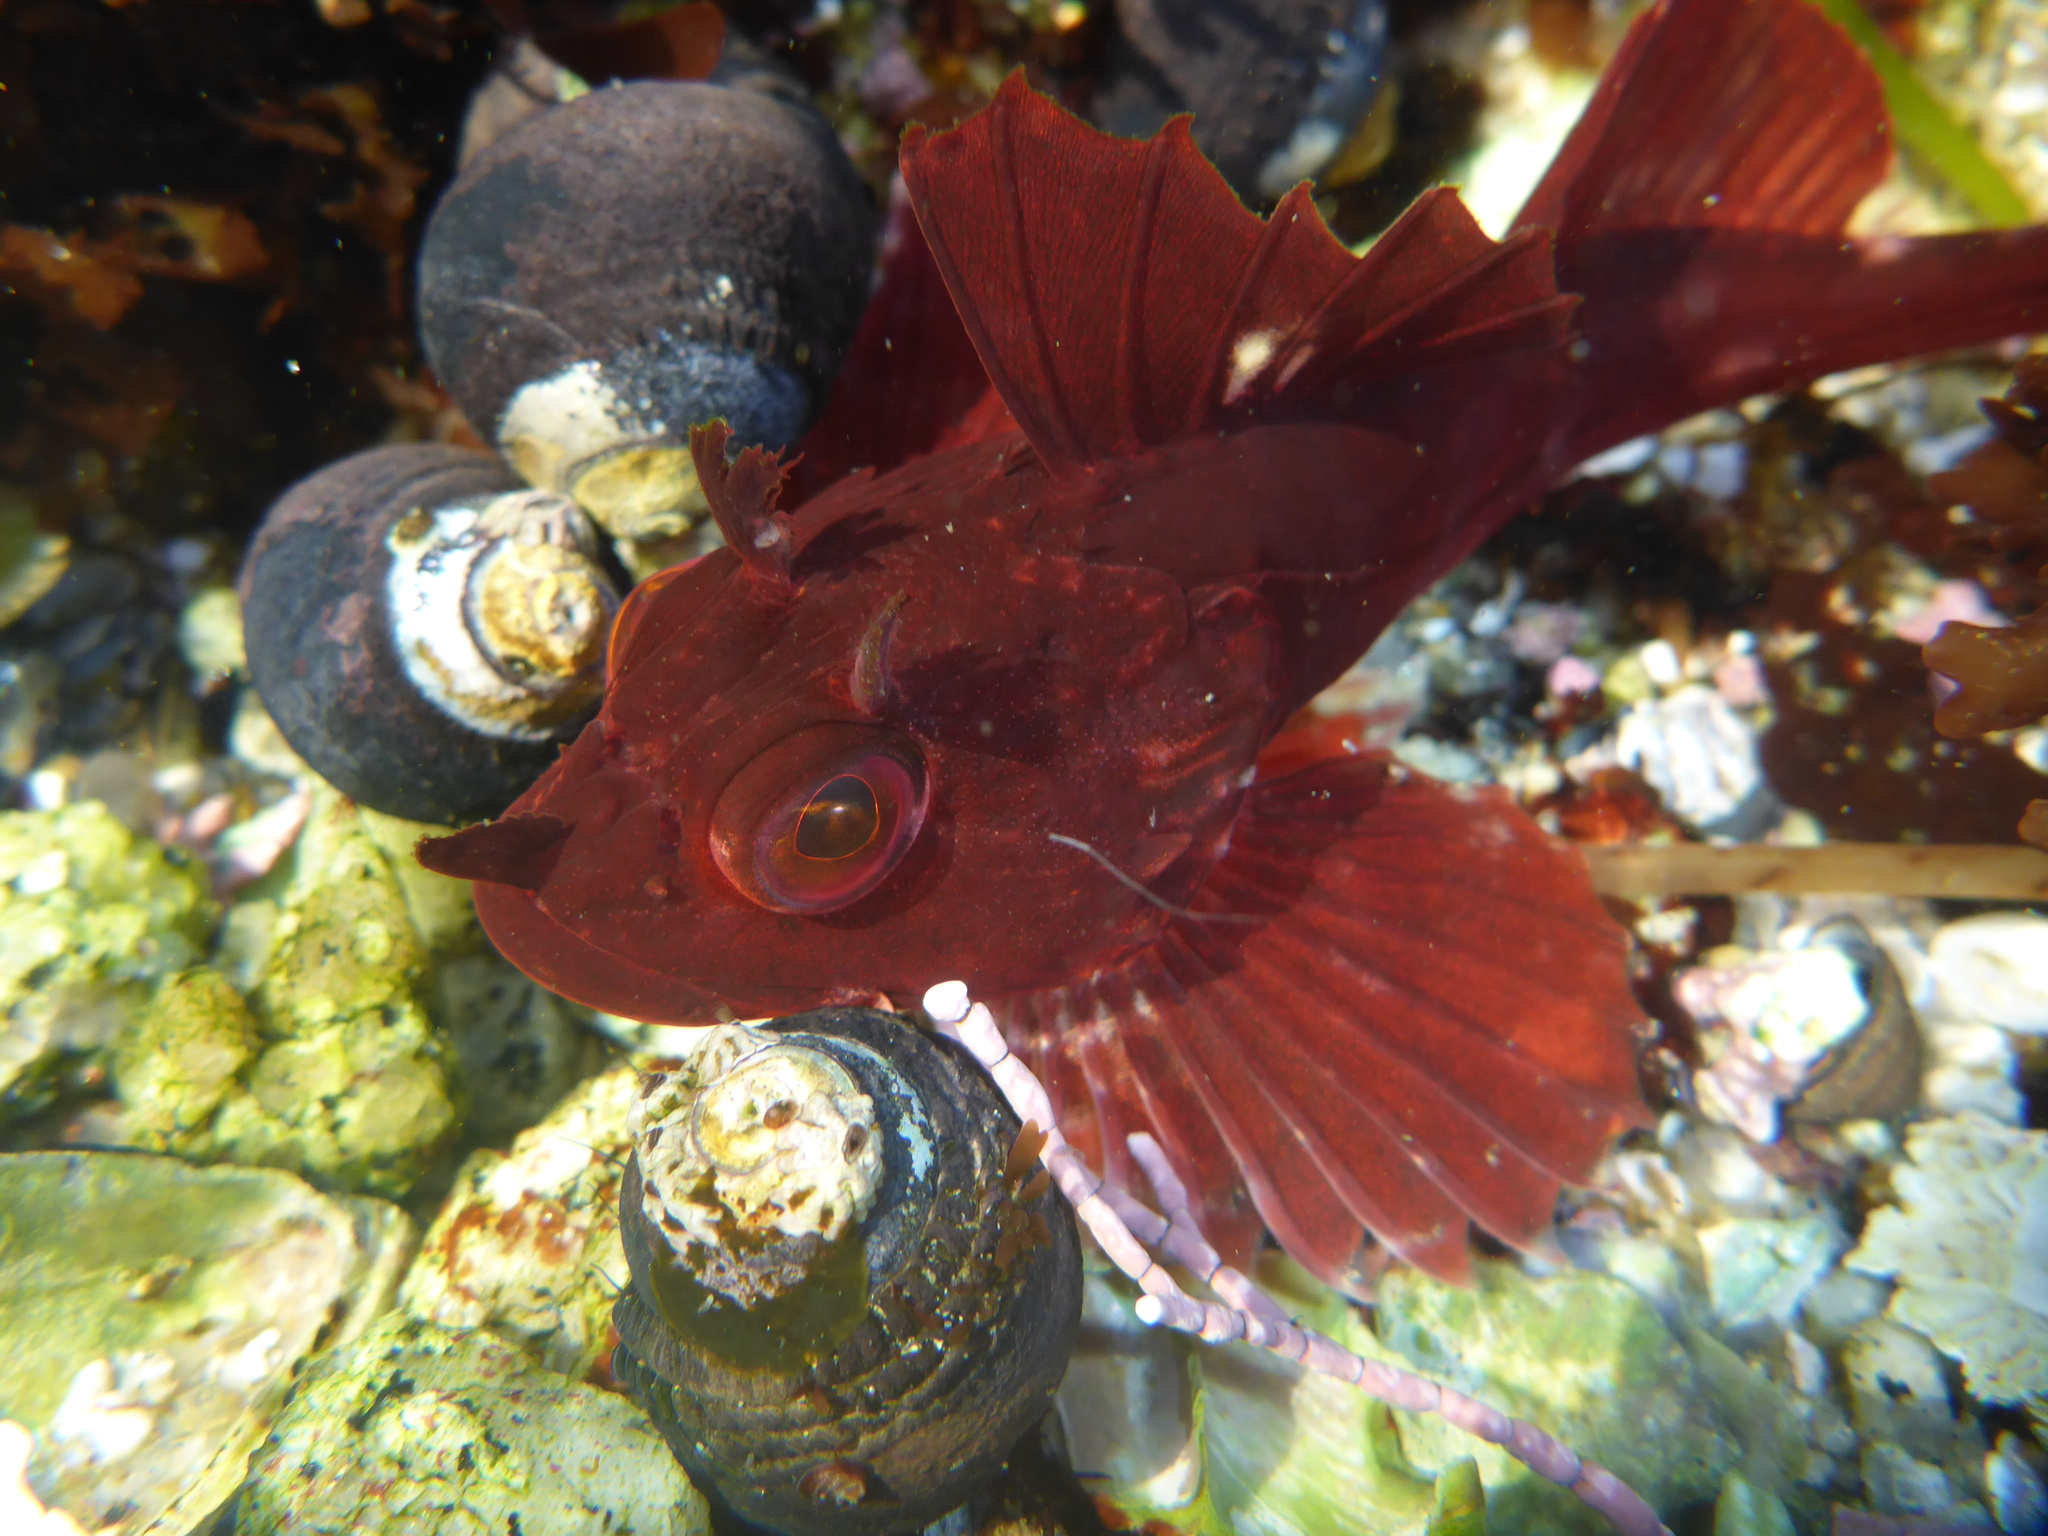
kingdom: Animalia
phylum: Chordata
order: Scorpaeniformes
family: Cottidae
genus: Scorpaenichthys
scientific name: Scorpaenichthys marmoratus
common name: Cabezon
